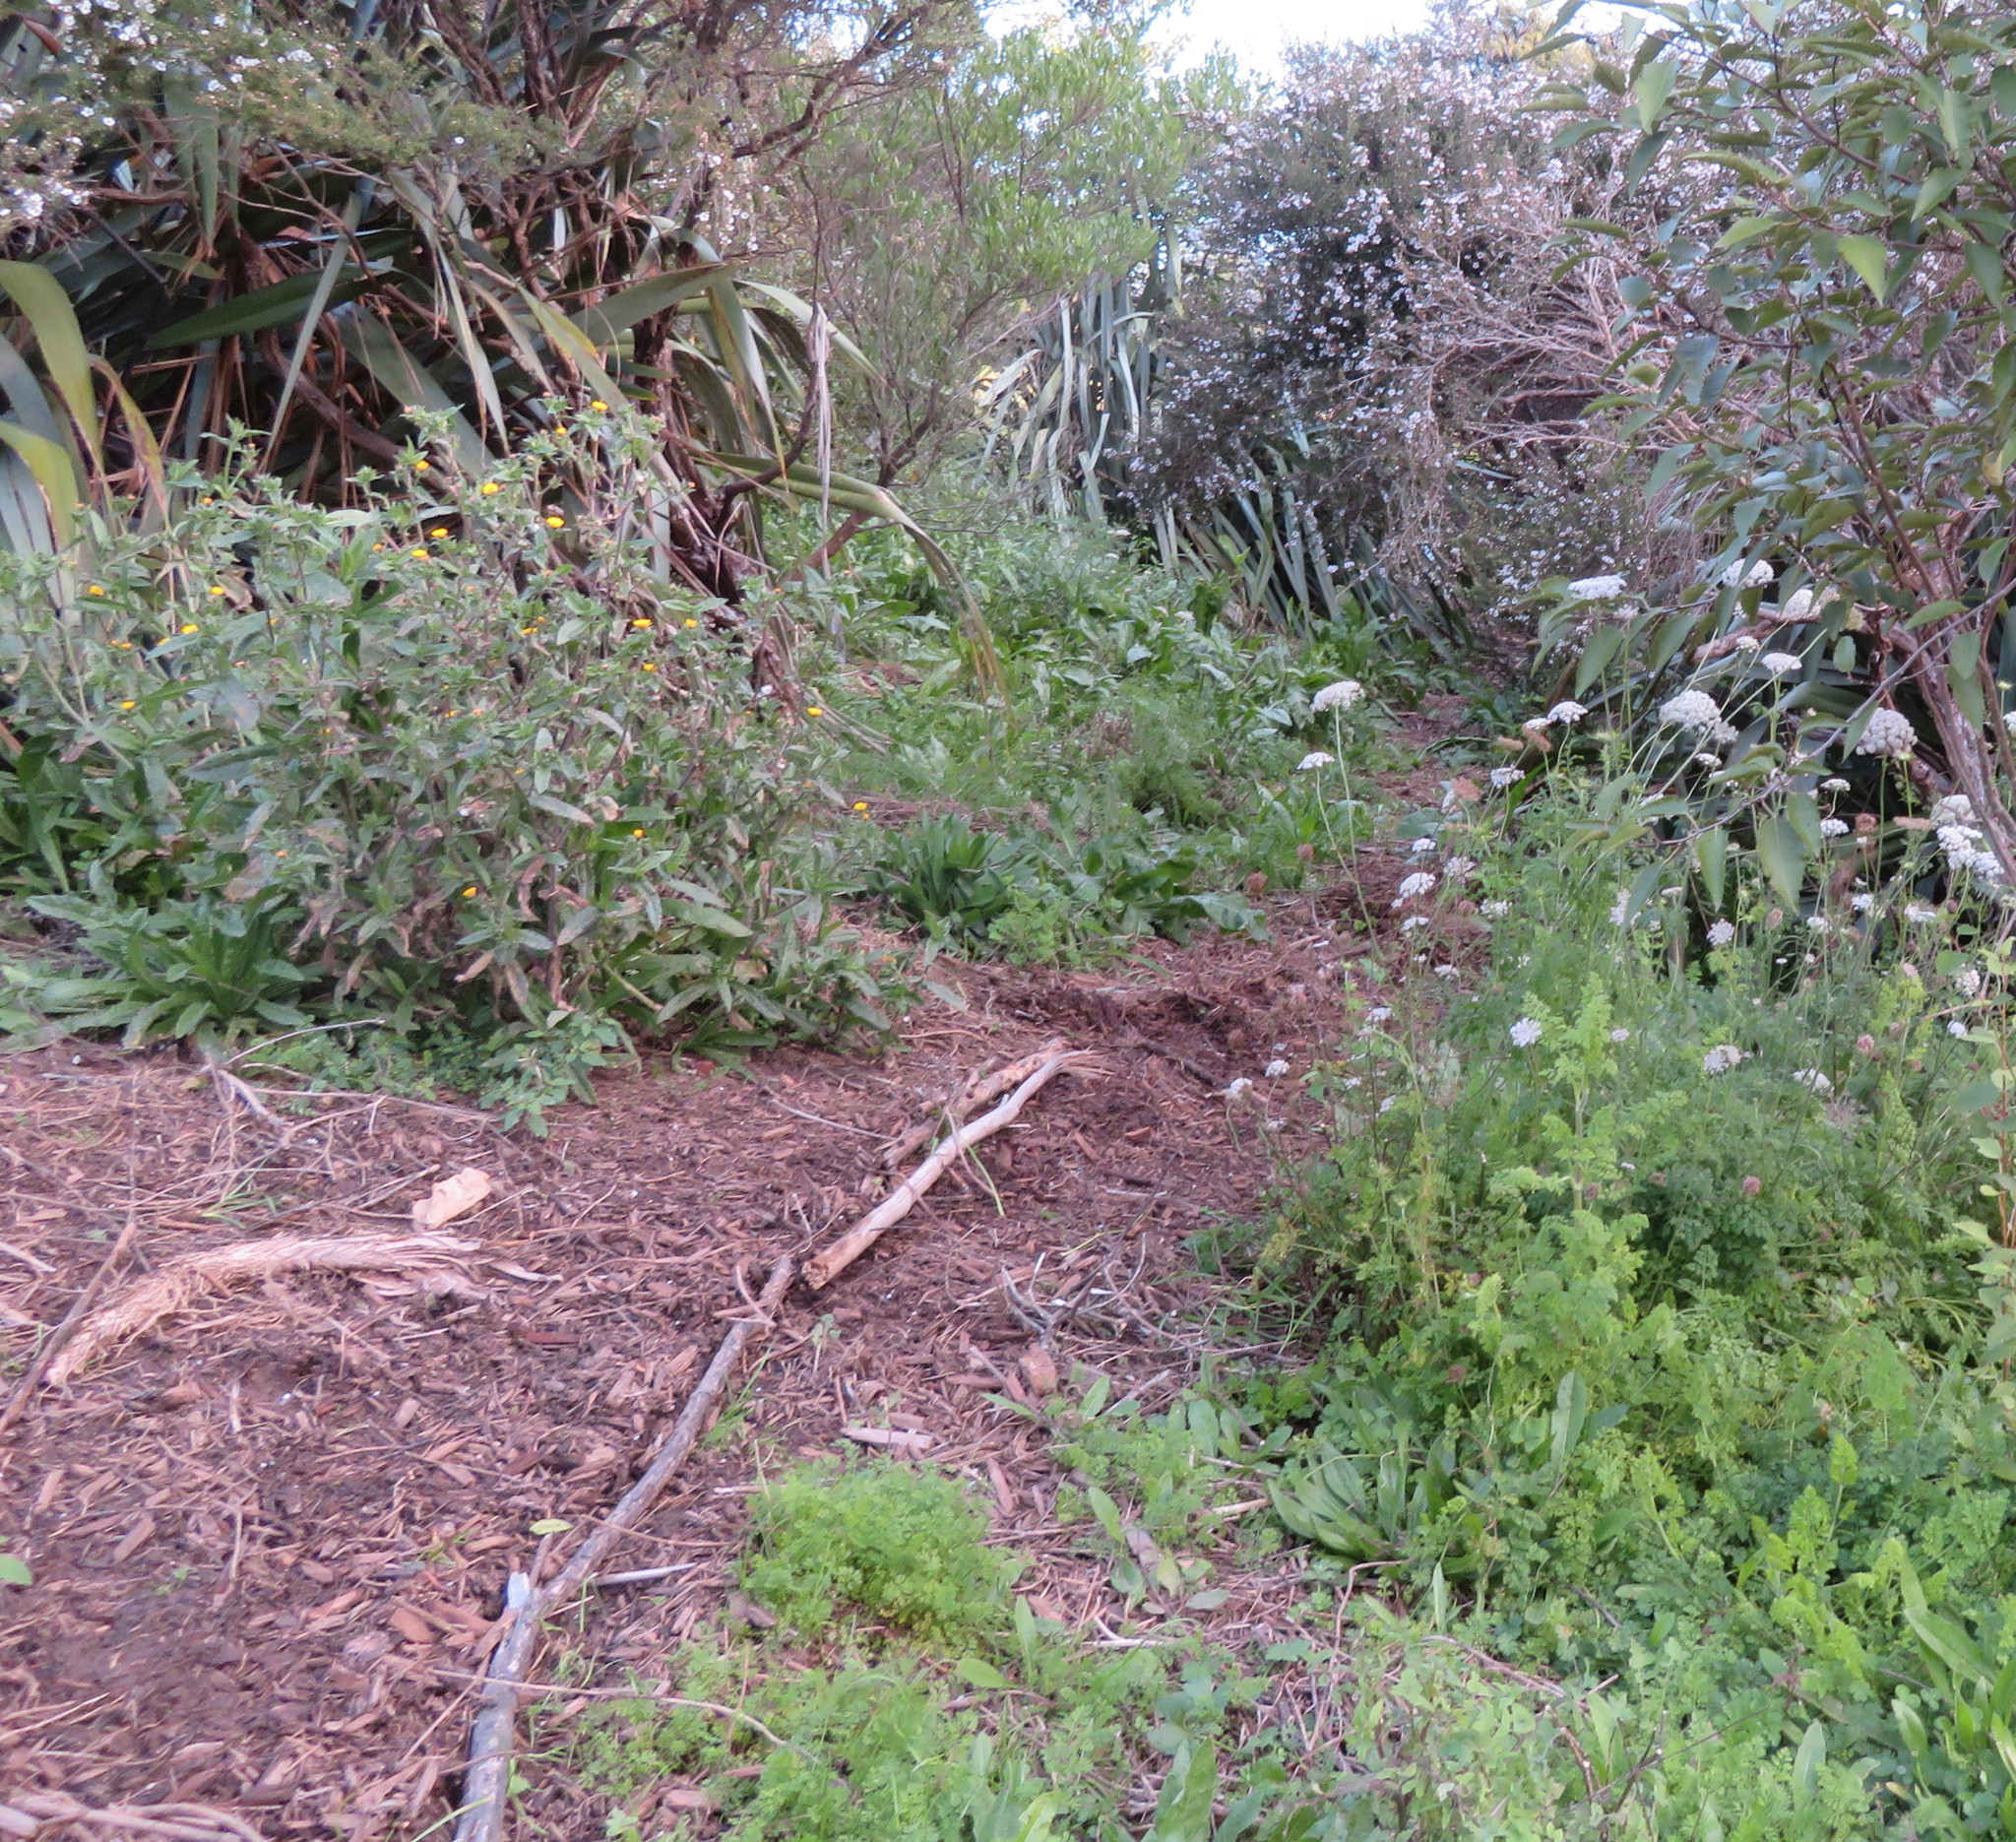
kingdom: Plantae
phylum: Tracheophyta
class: Magnoliopsida
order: Asterales
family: Asteraceae
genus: Helminthotheca
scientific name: Helminthotheca echioides
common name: Ox-tongue
